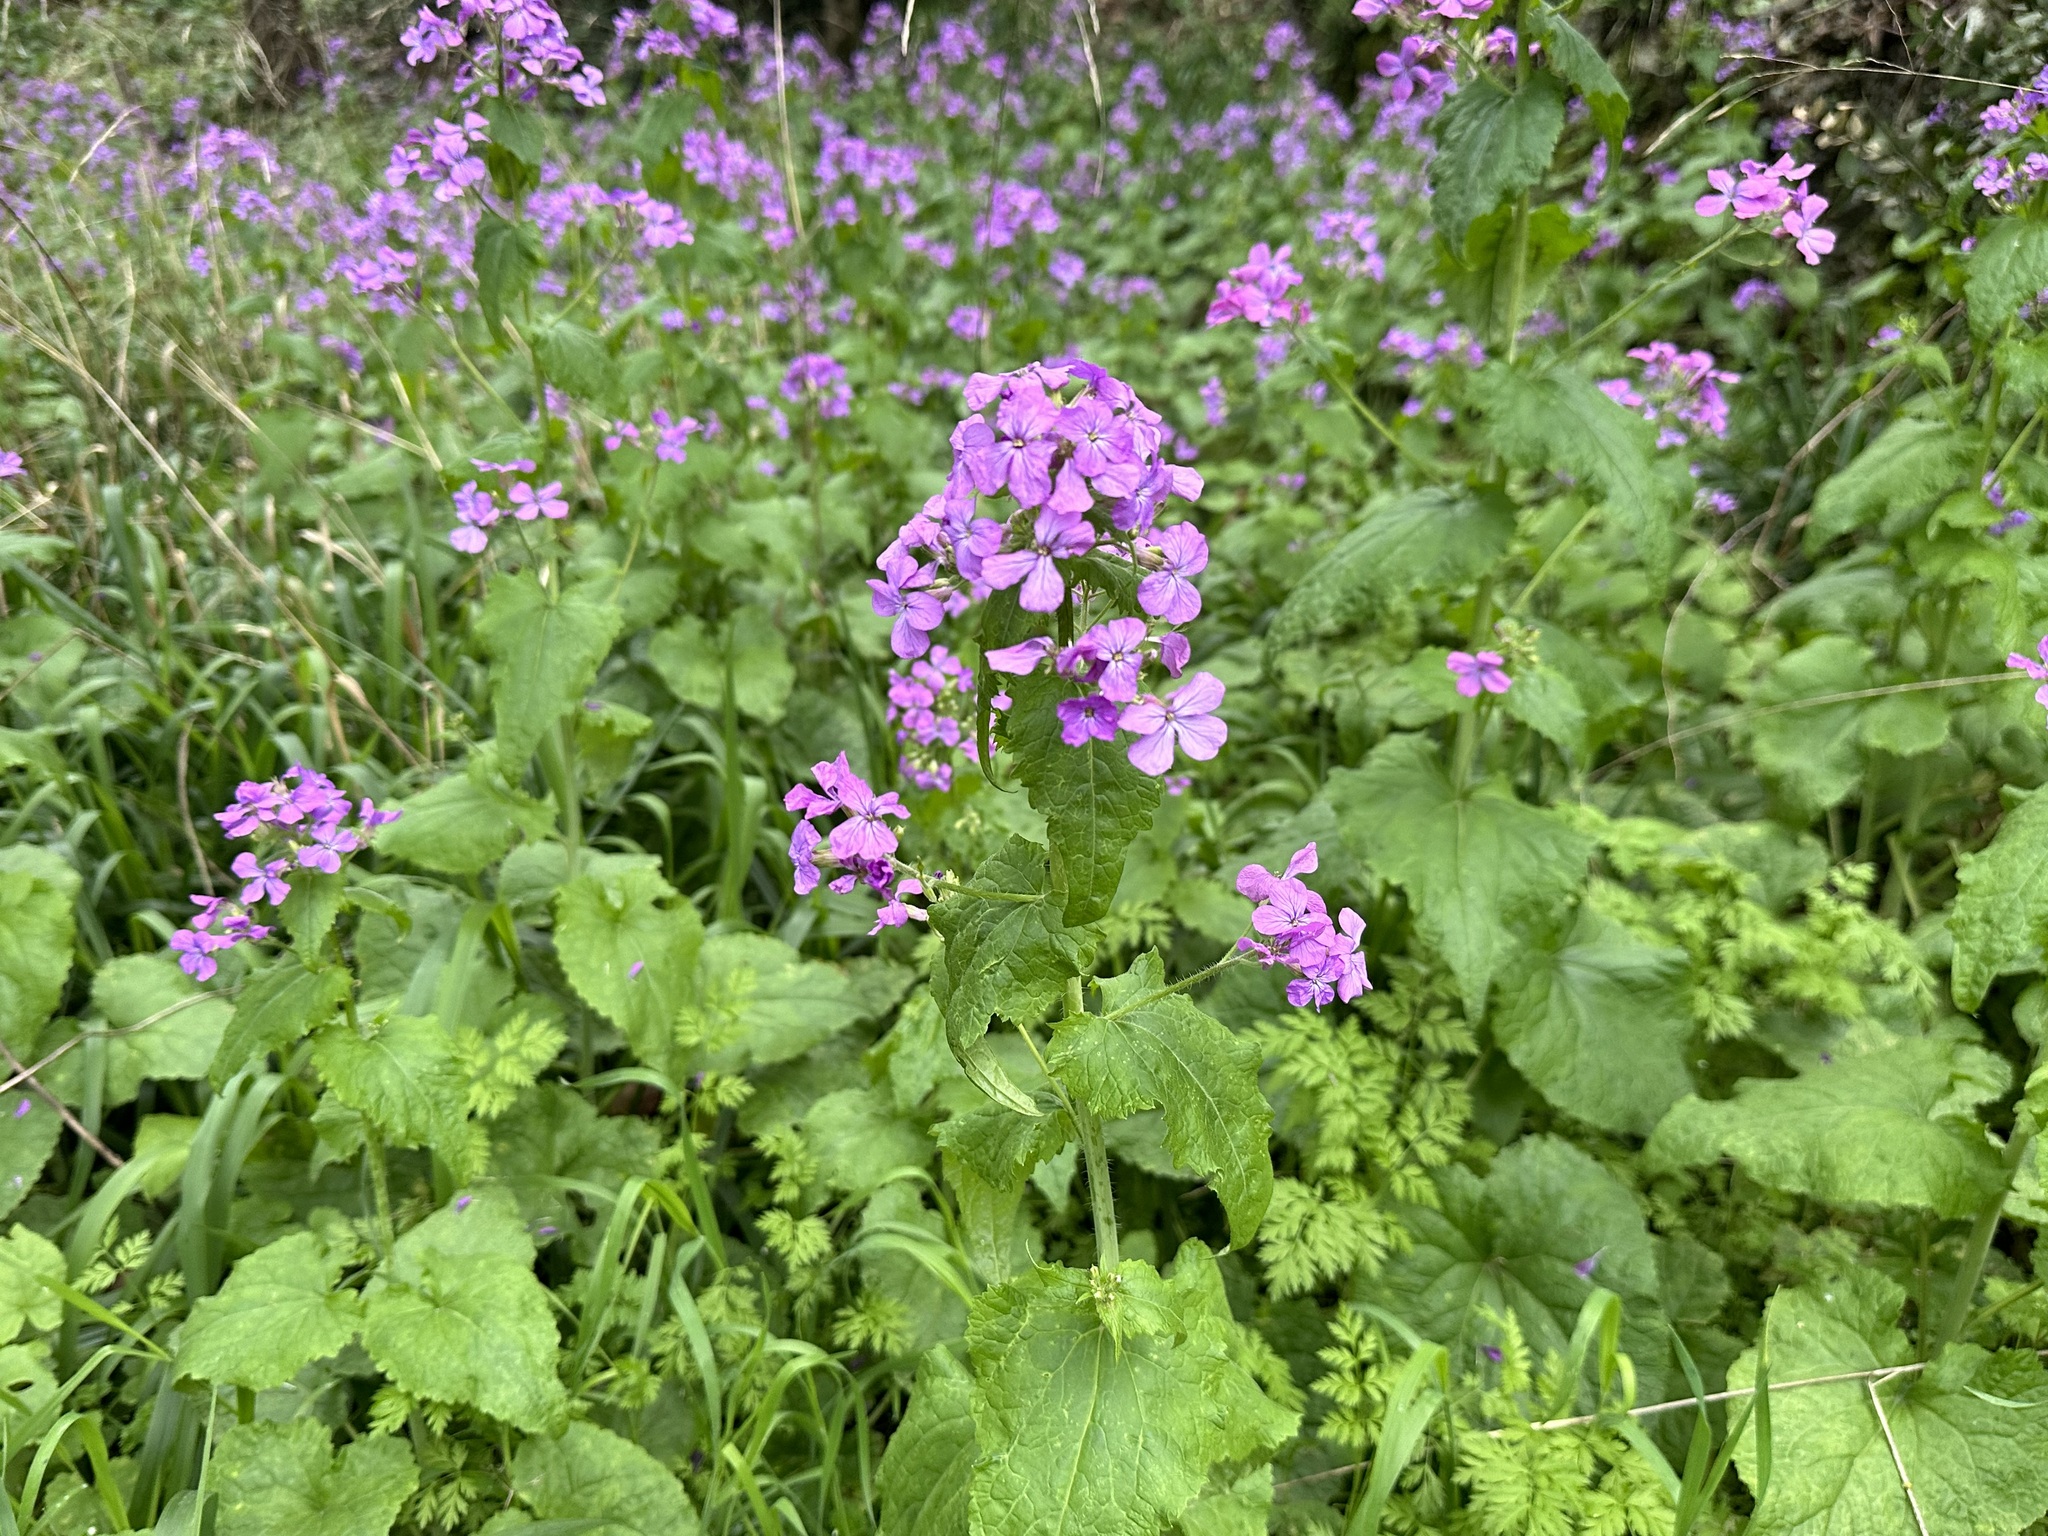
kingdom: Plantae
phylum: Tracheophyta
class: Magnoliopsida
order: Brassicales
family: Brassicaceae
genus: Lunaria
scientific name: Lunaria annua
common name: Honesty
